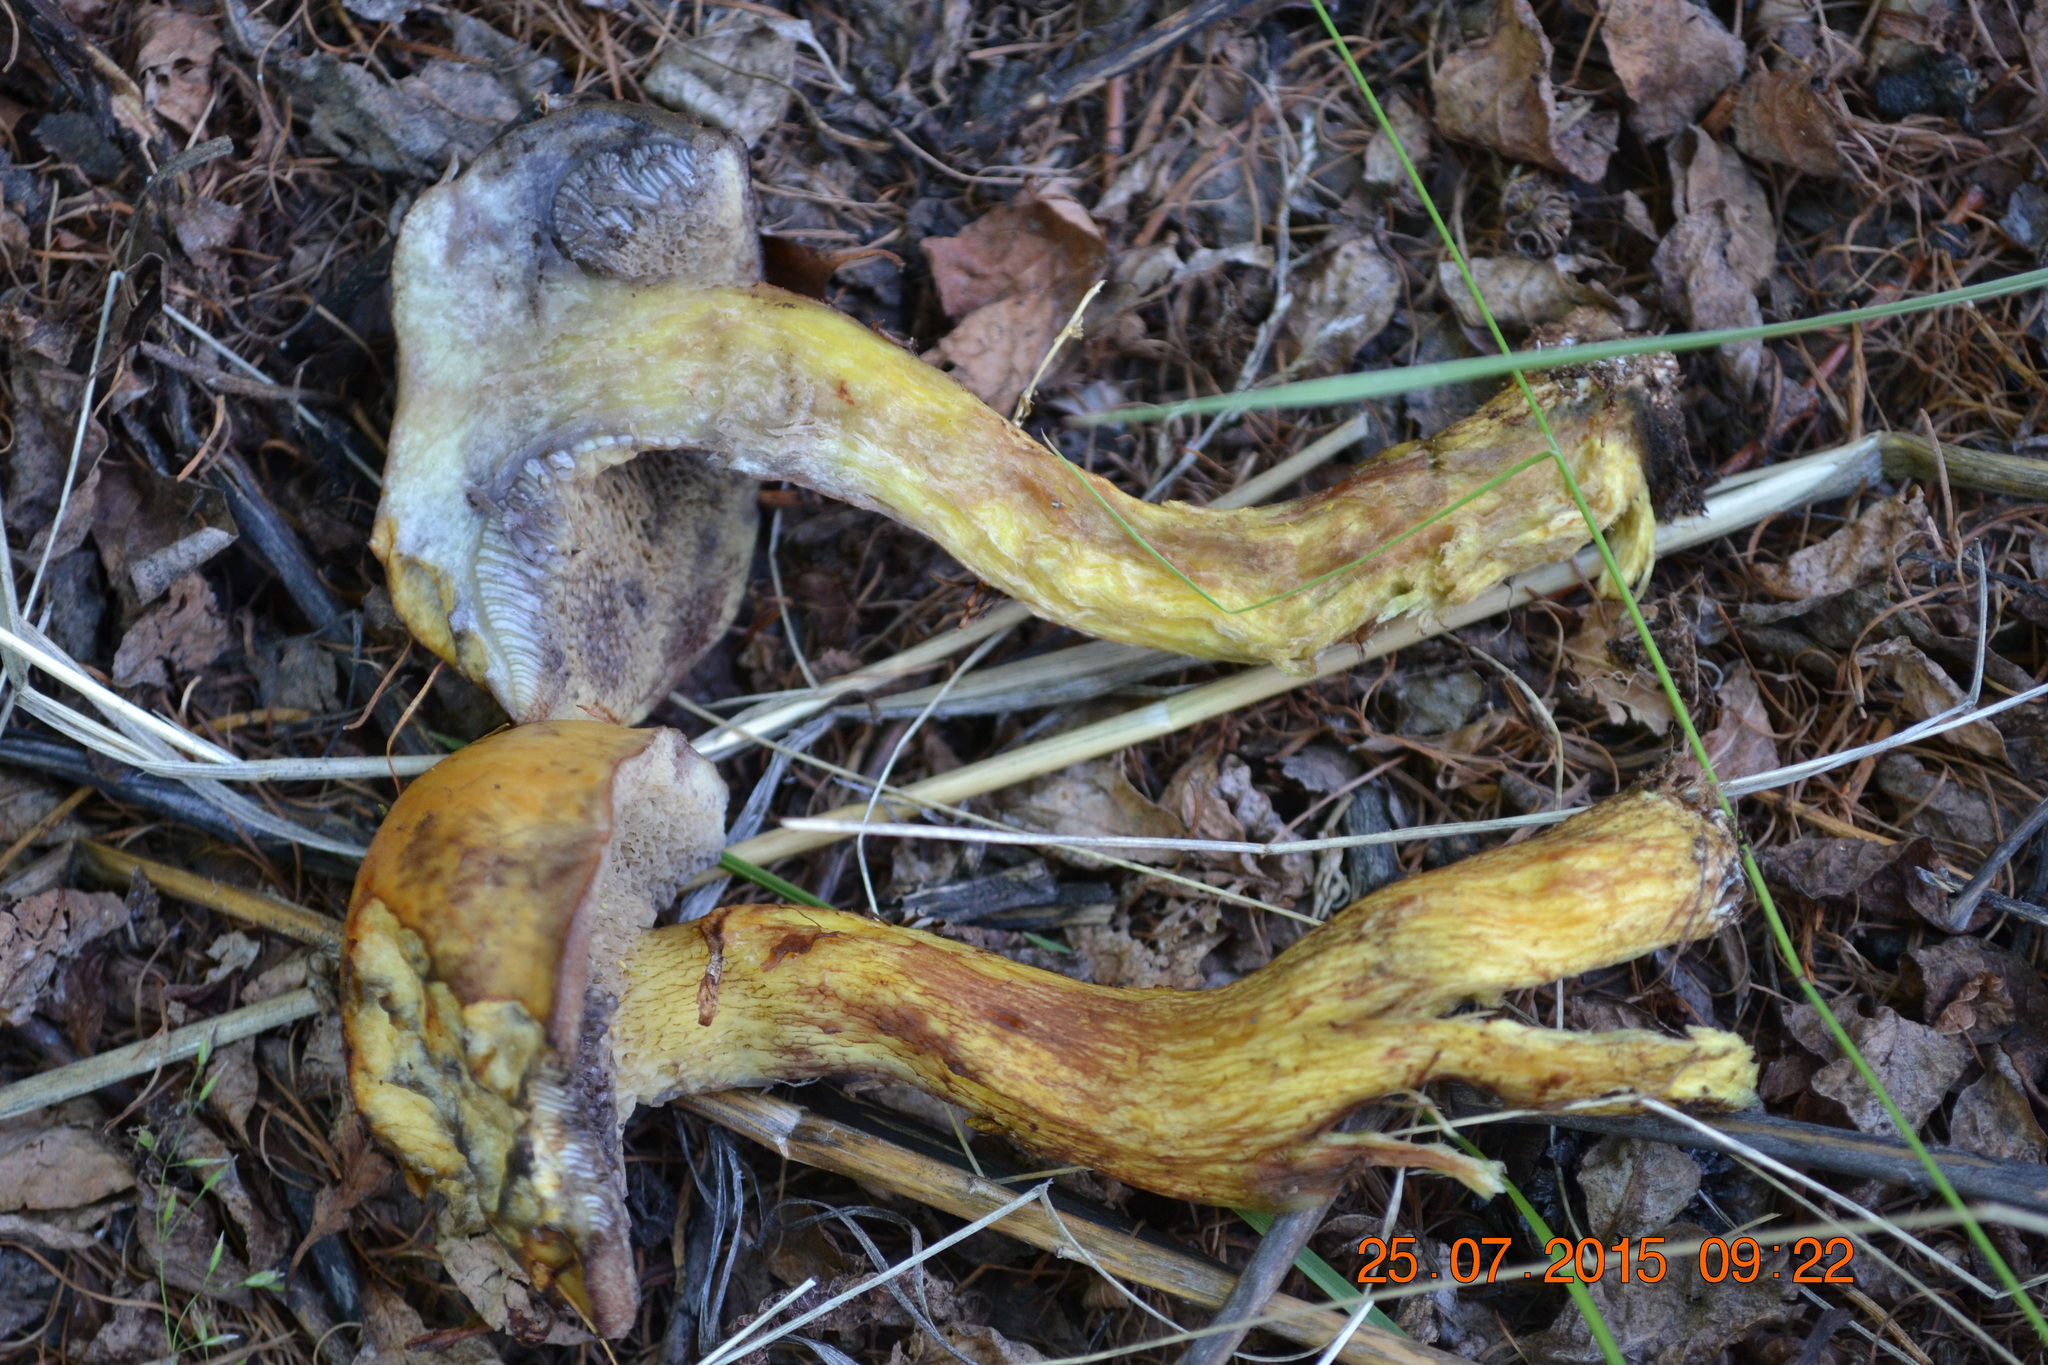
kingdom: Fungi
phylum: Basidiomycota
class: Agaricomycetes
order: Boletales
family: Suillaceae
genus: Suillus
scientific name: Suillus americanus
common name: Chicken fat mushroom
